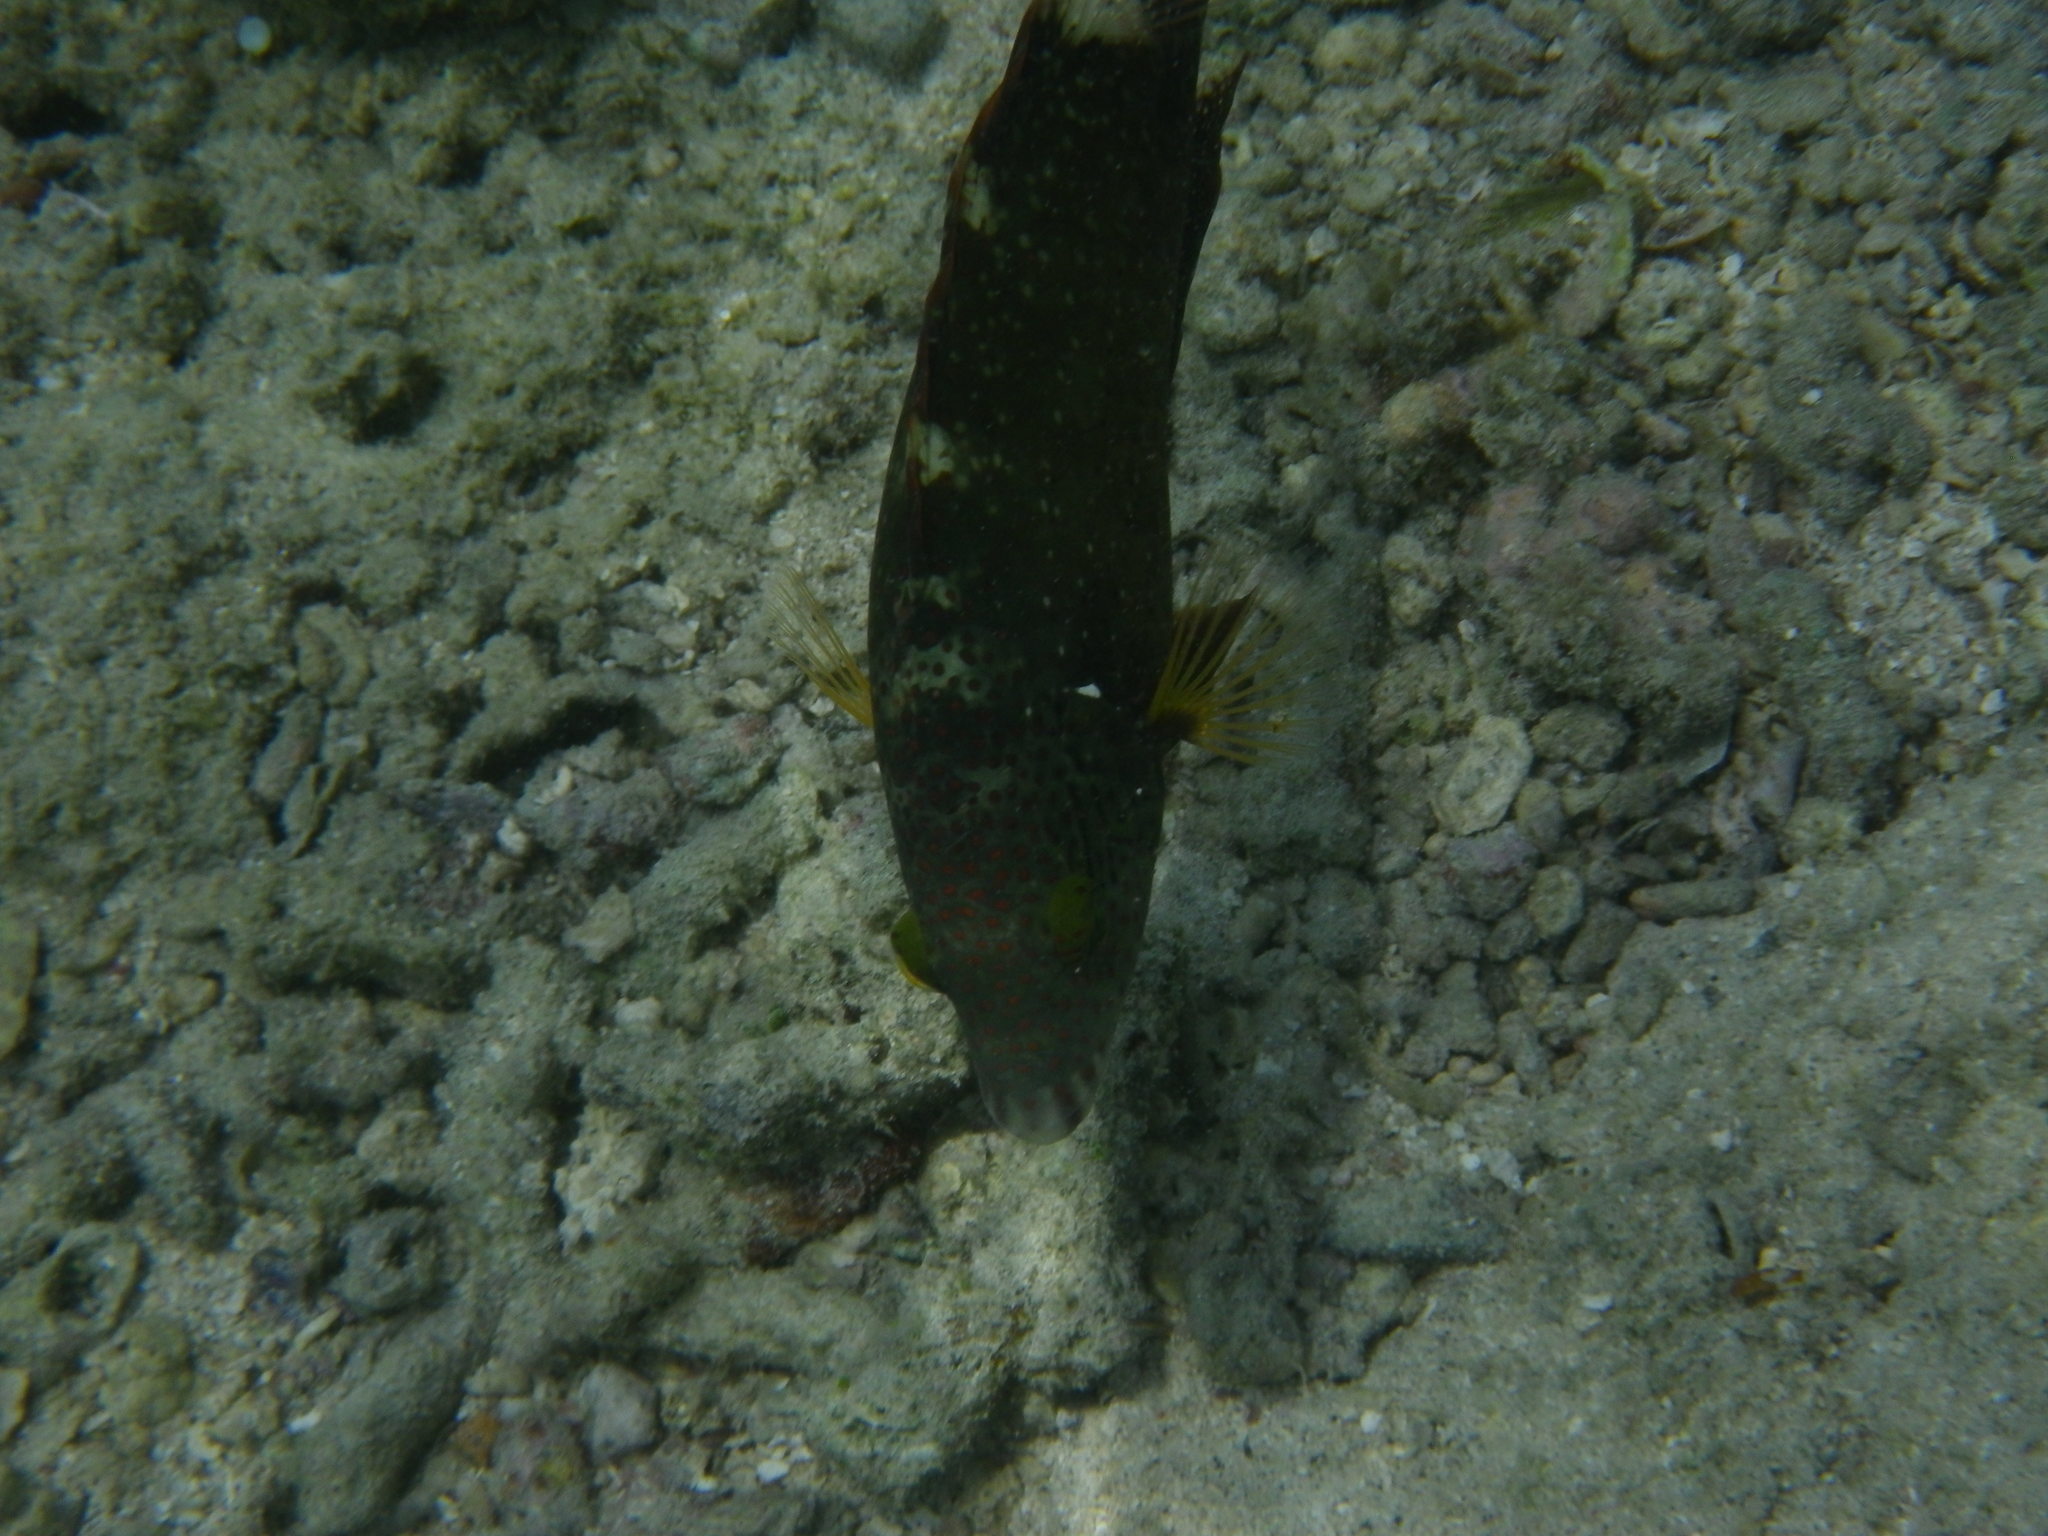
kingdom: Animalia
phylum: Chordata
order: Perciformes
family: Labridae
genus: Cheilinus
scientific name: Cheilinus chlorourus
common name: Floral wrasse
